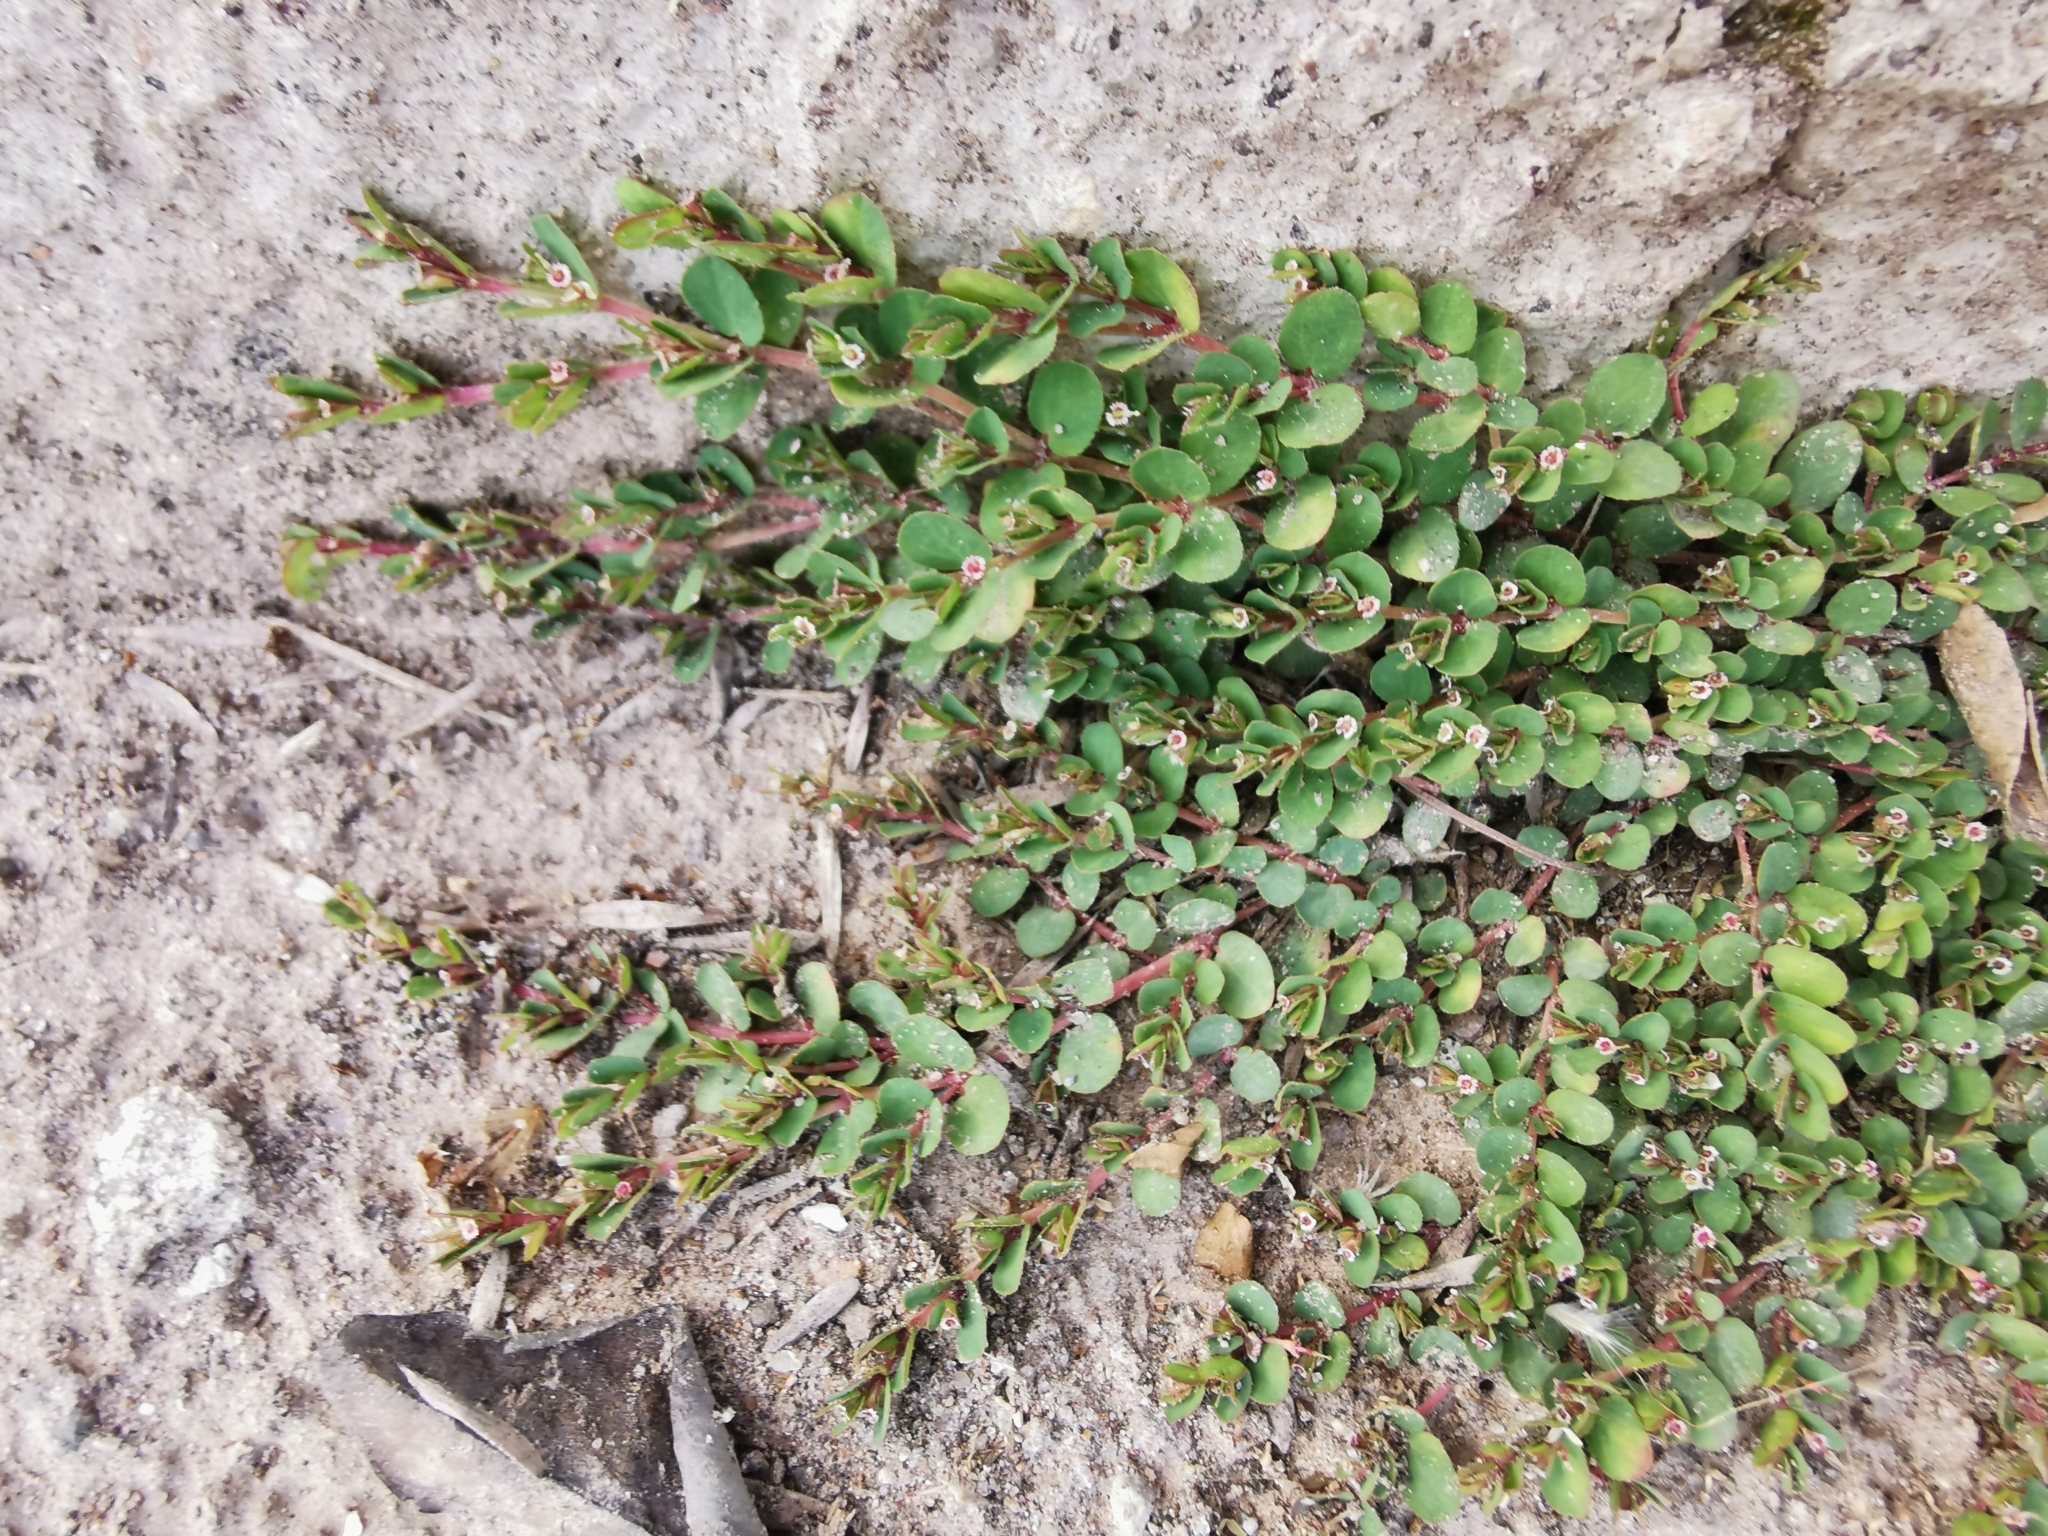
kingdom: Plantae
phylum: Tracheophyta
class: Magnoliopsida
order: Malpighiales
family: Euphorbiaceae
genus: Euphorbia
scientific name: Euphorbia serpillifolia
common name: Thyme-leaf spurge
